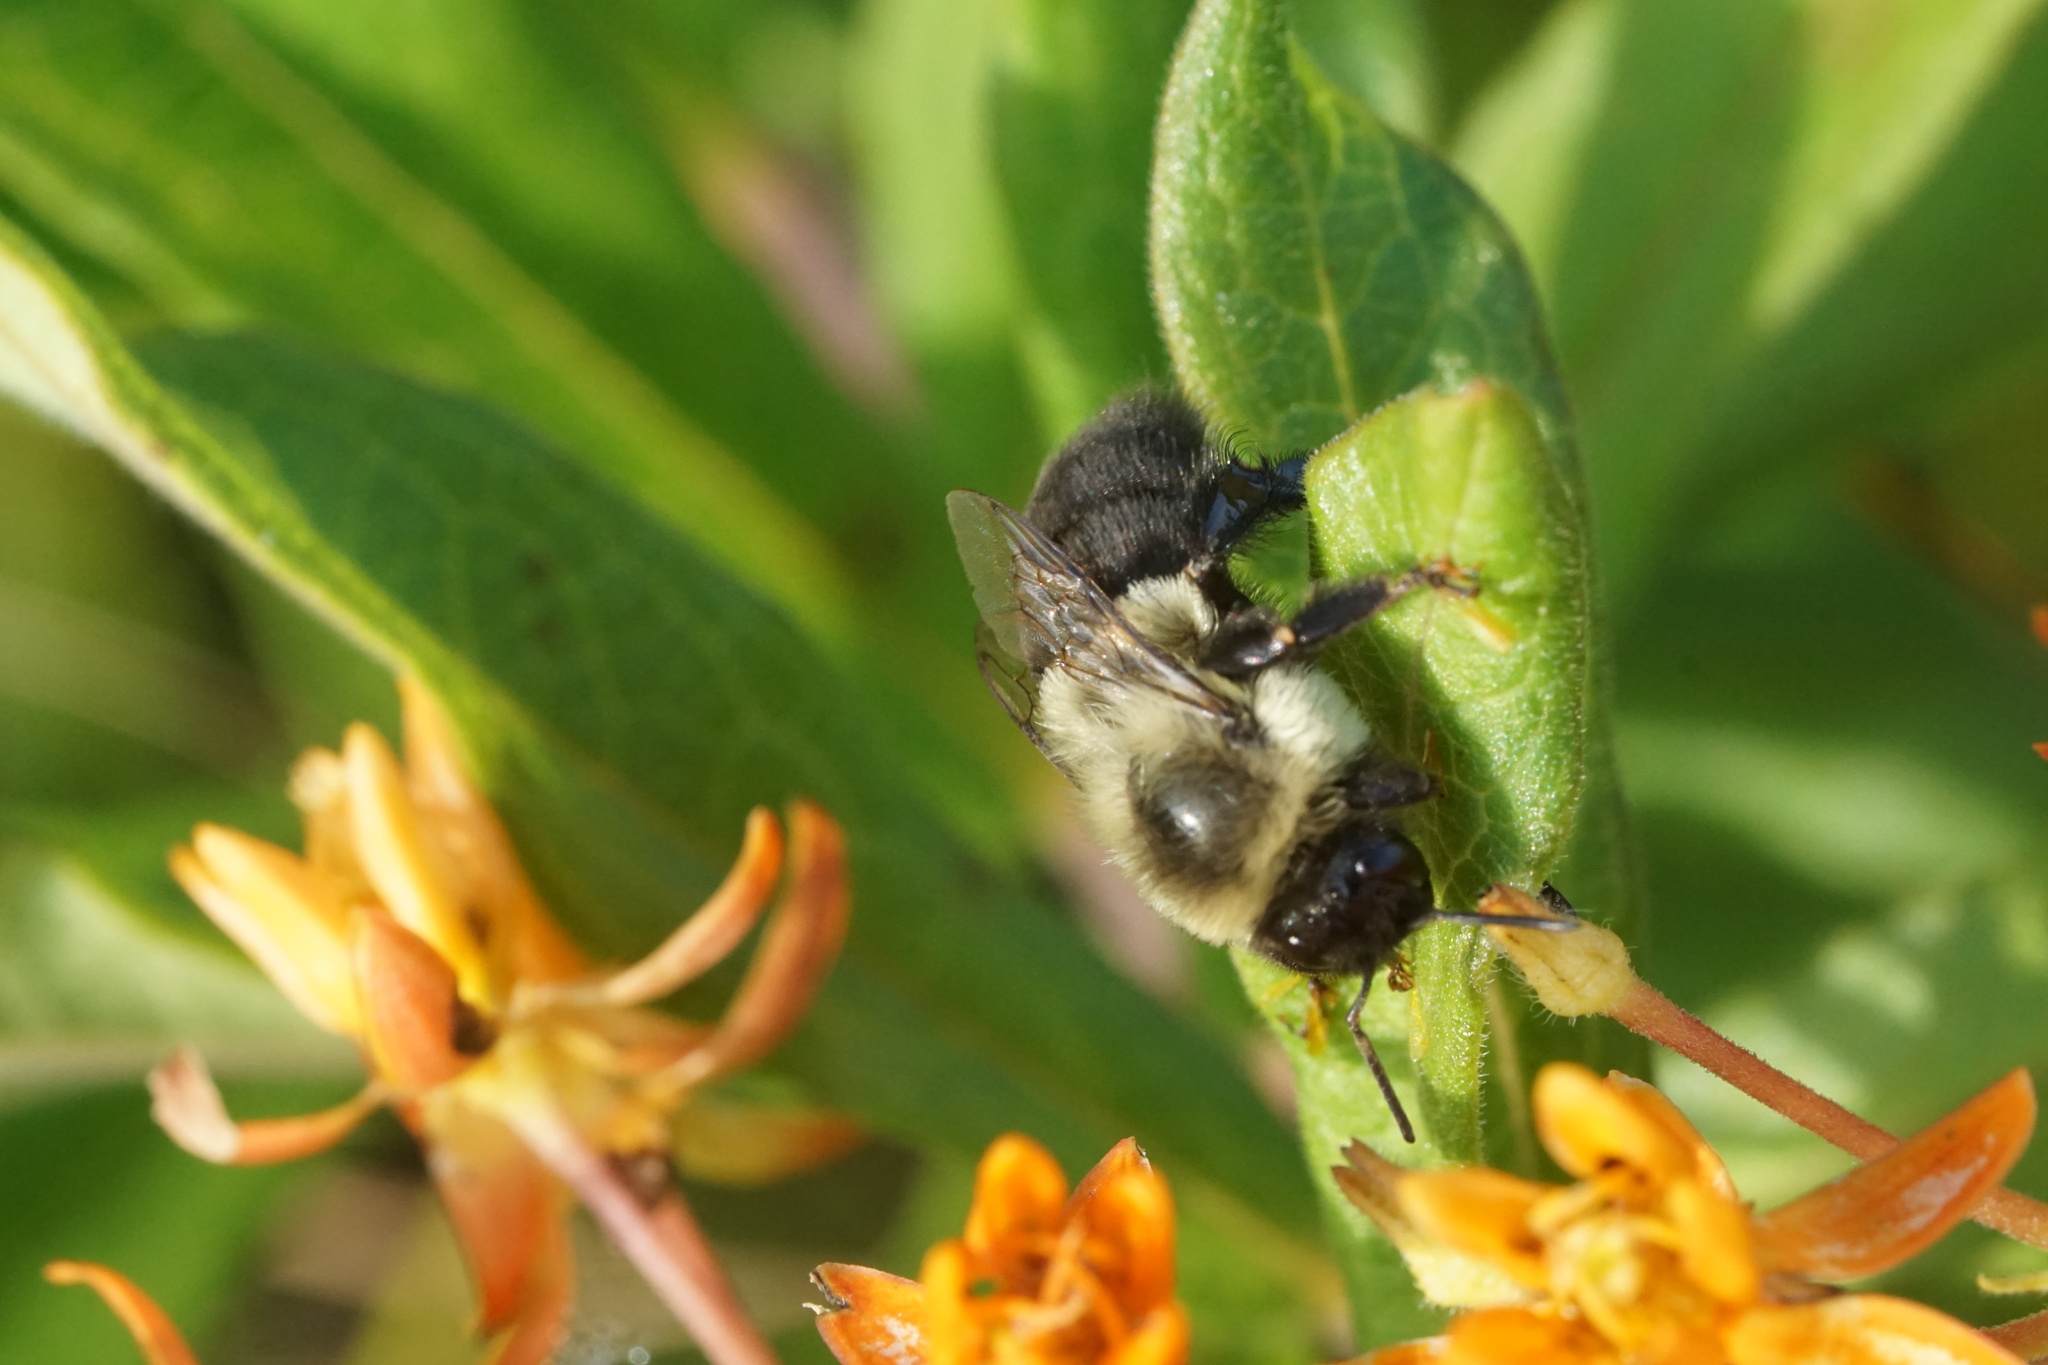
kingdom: Animalia
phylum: Arthropoda
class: Insecta
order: Hymenoptera
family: Apidae
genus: Bombus
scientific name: Bombus impatiens
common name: Common eastern bumble bee
